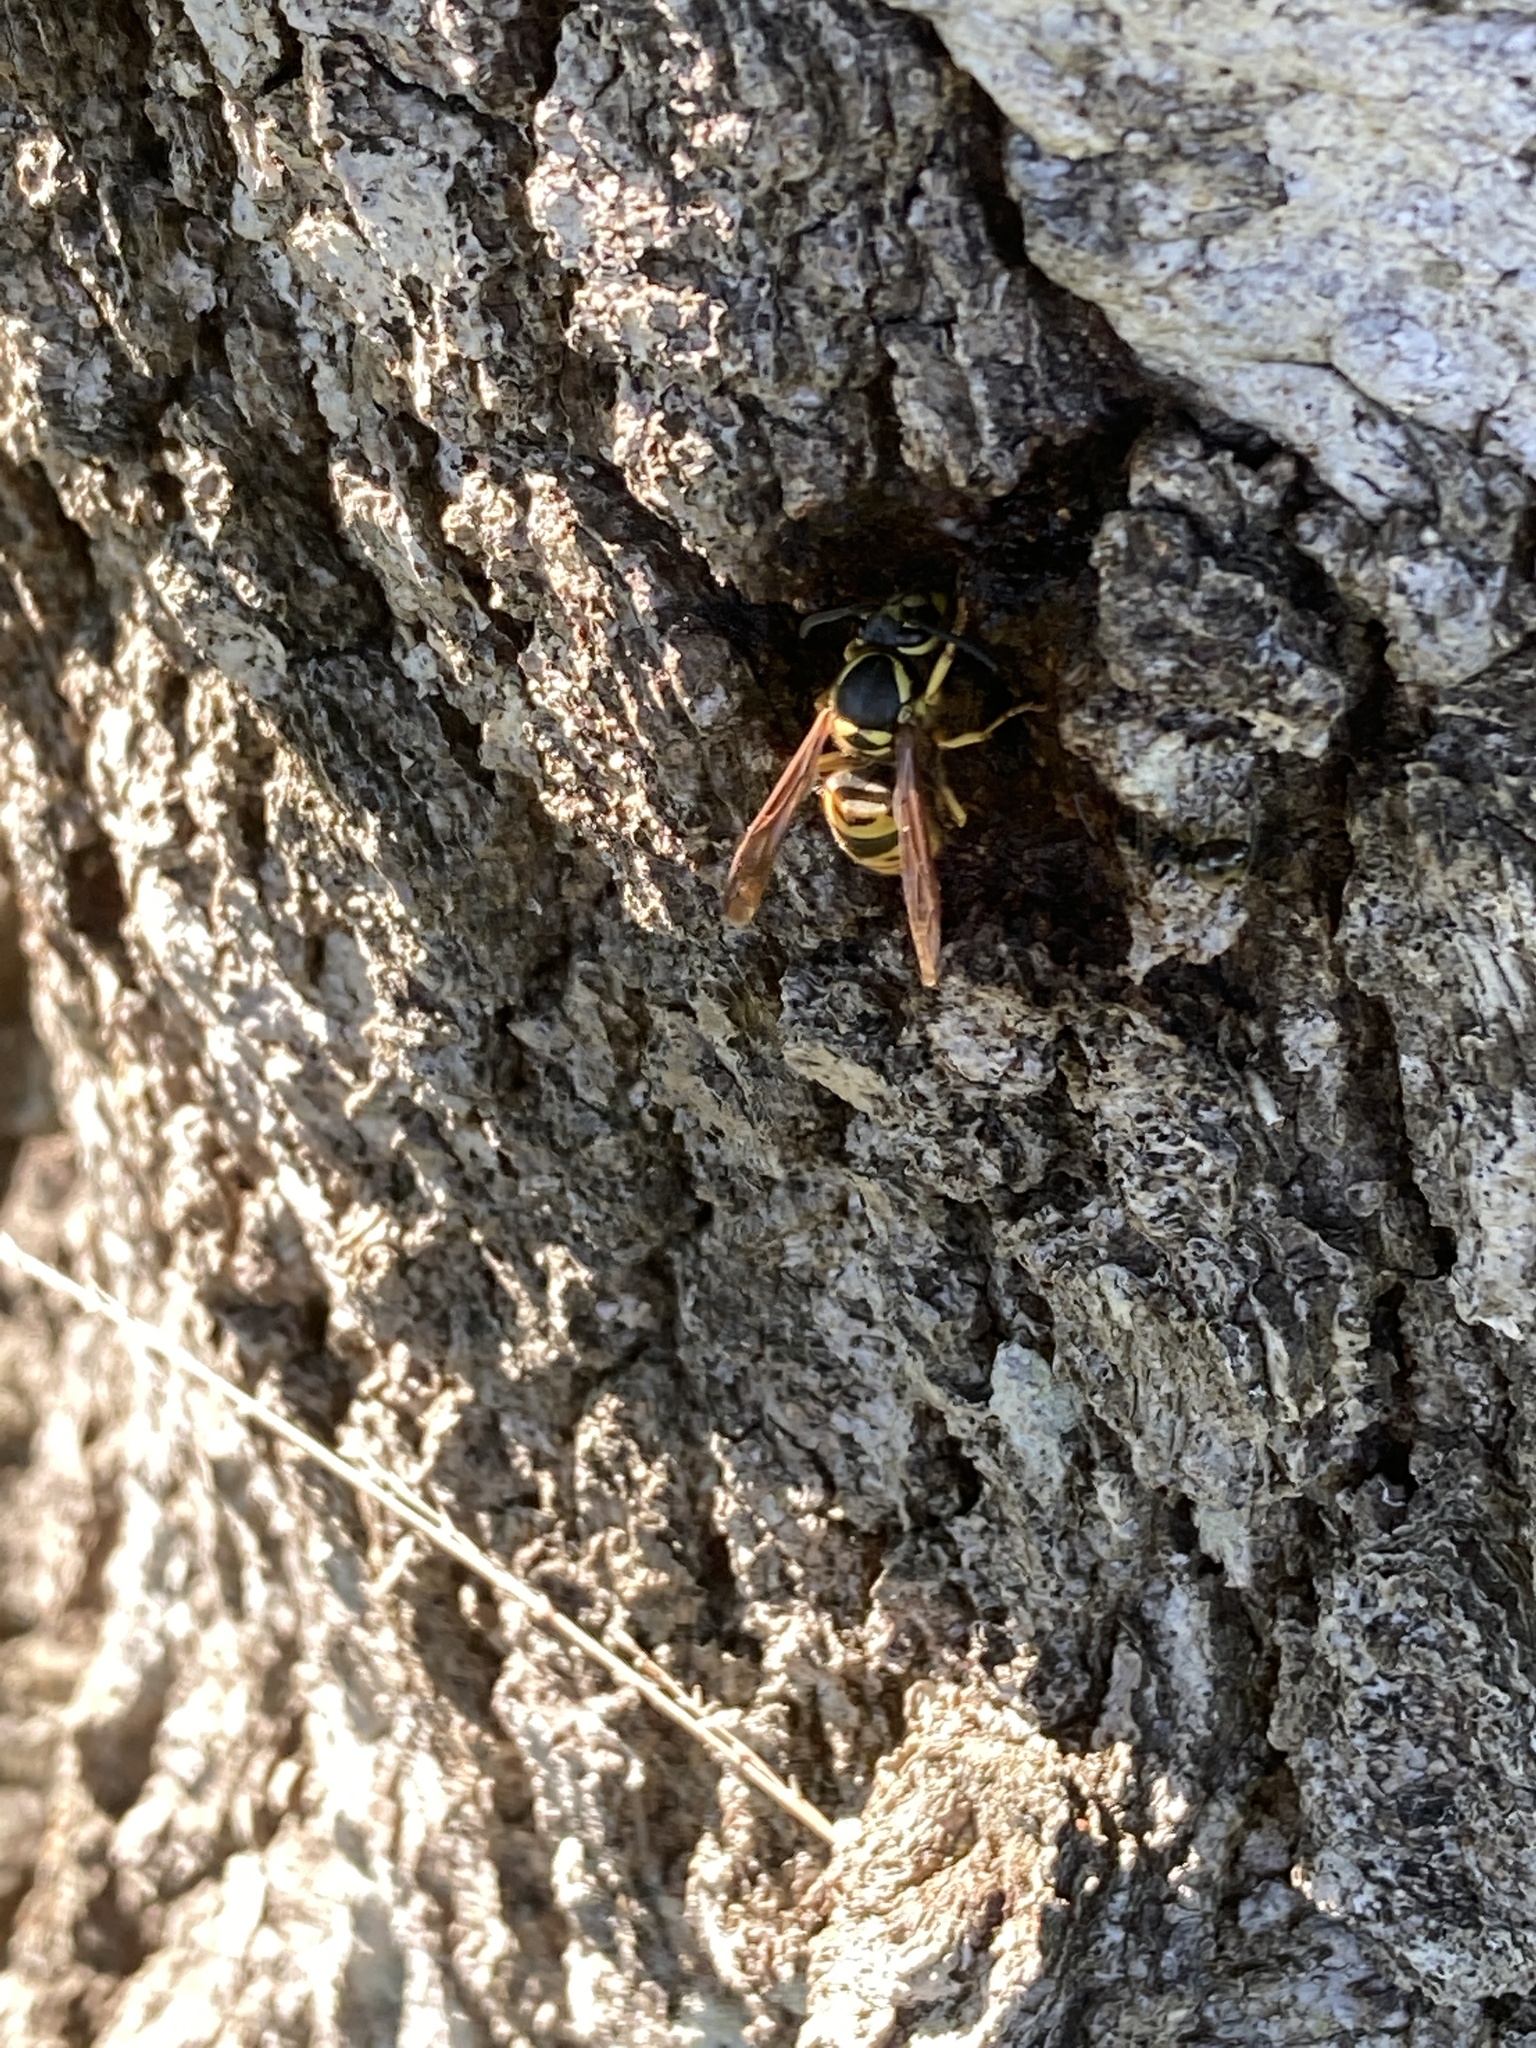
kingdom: Animalia
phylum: Arthropoda
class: Insecta
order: Hymenoptera
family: Vespidae
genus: Vespula
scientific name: Vespula maculifrons
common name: Eastern yellowjacket
